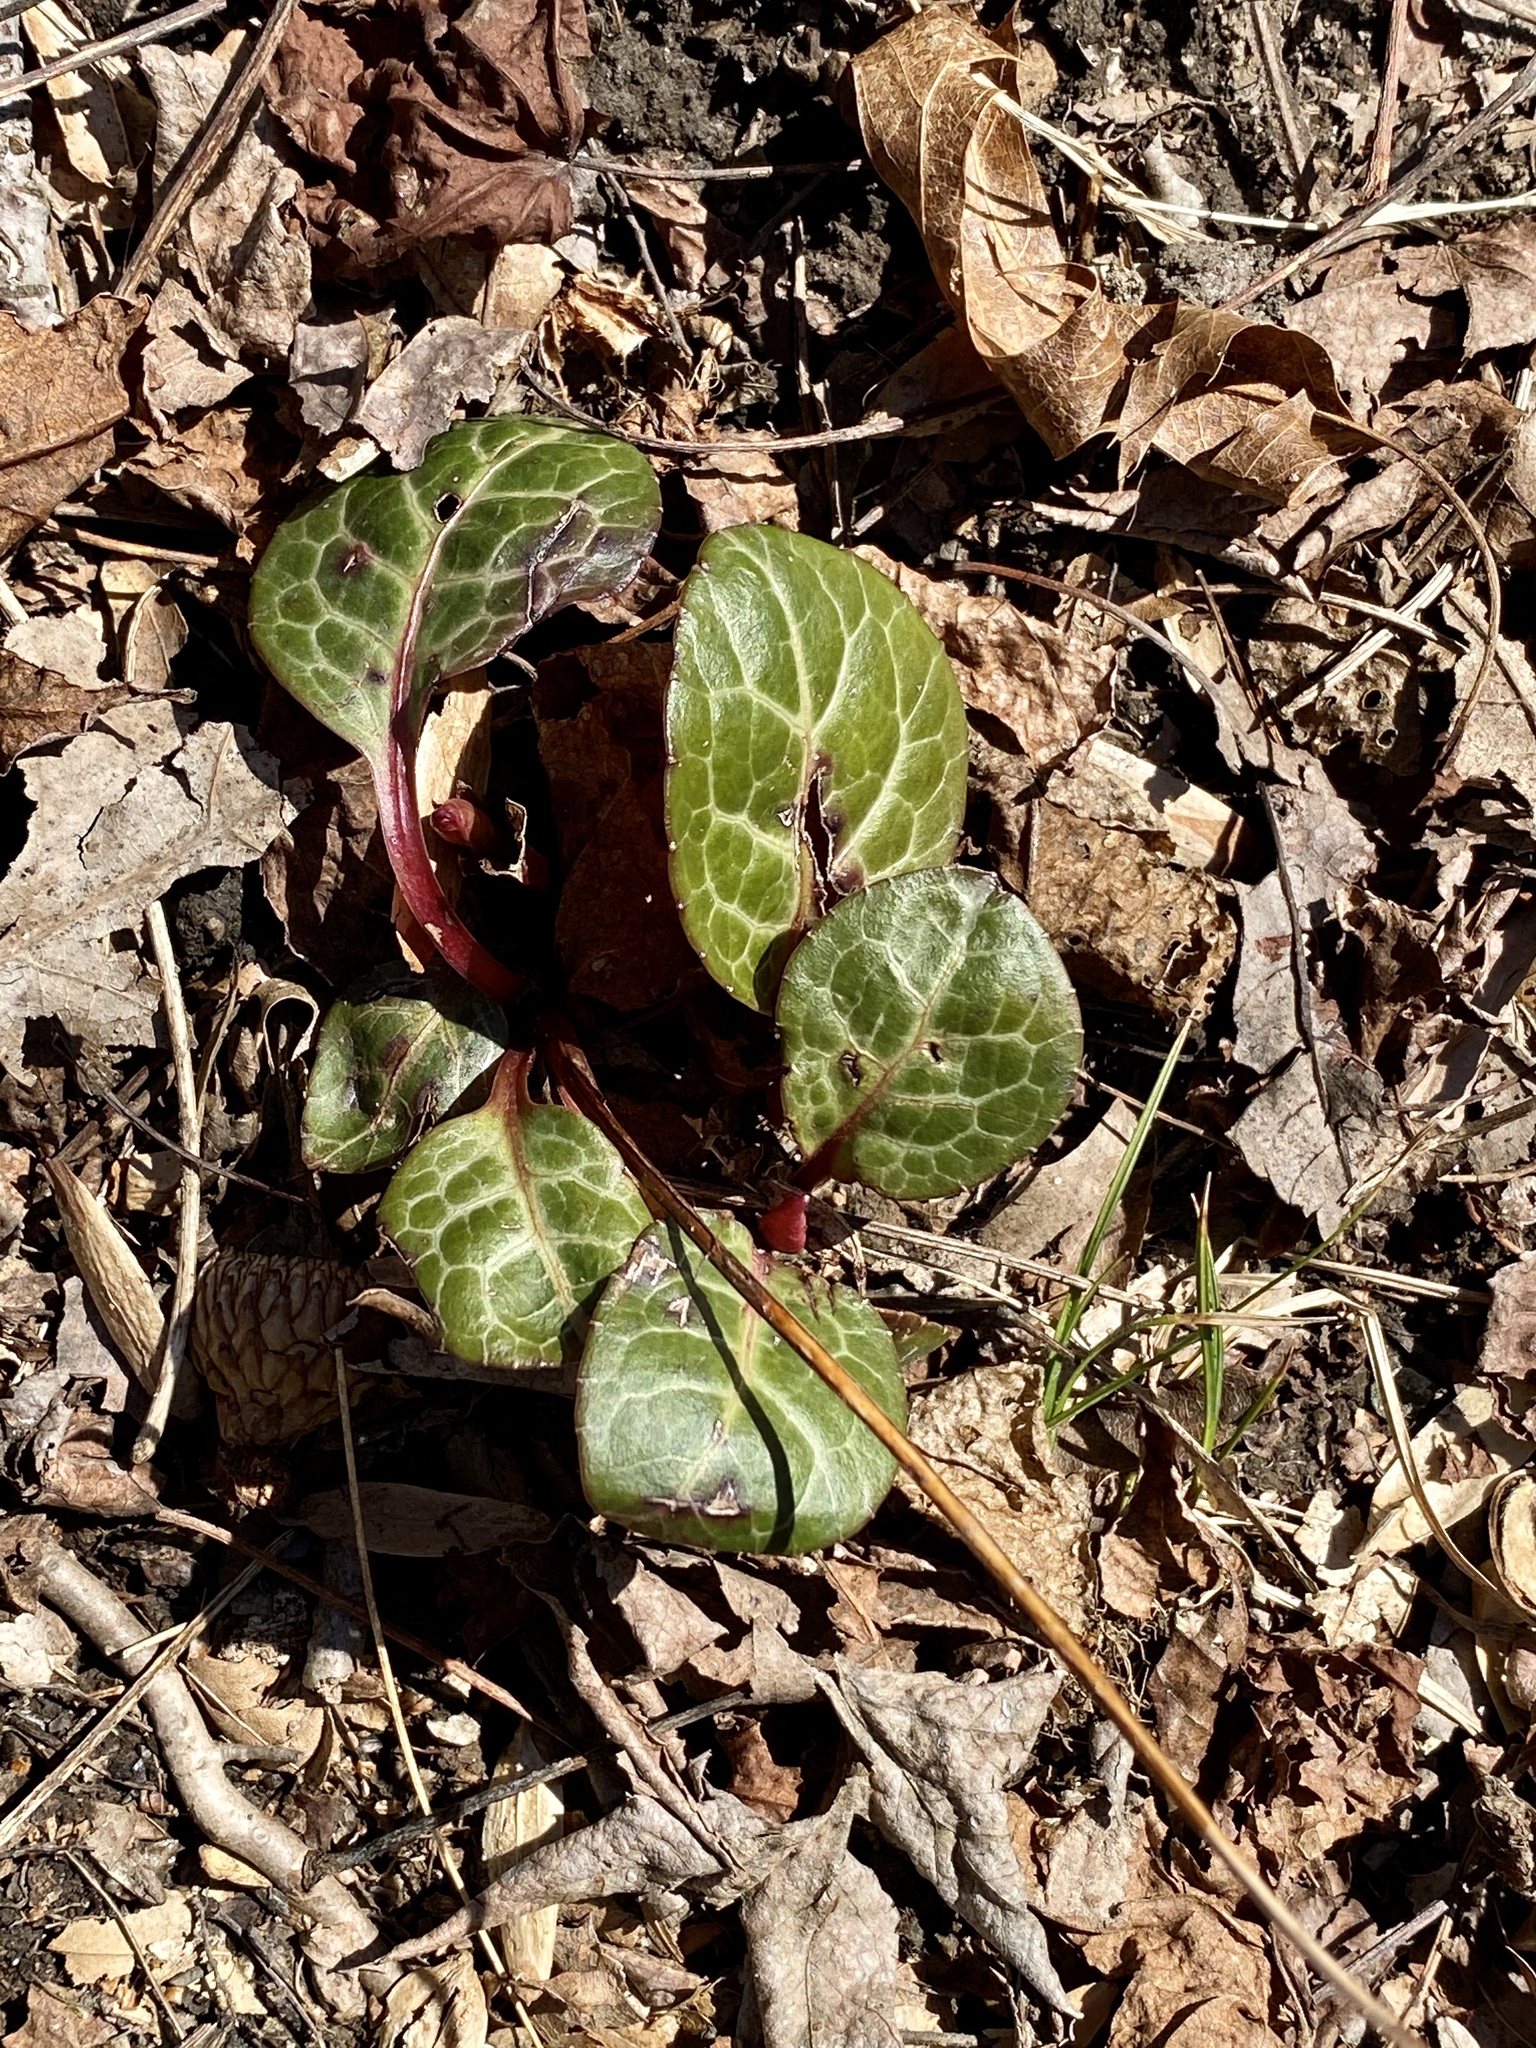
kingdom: Plantae
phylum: Tracheophyta
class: Magnoliopsida
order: Ericales
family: Ericaceae
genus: Pyrola
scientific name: Pyrola americana
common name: American wintergreen
